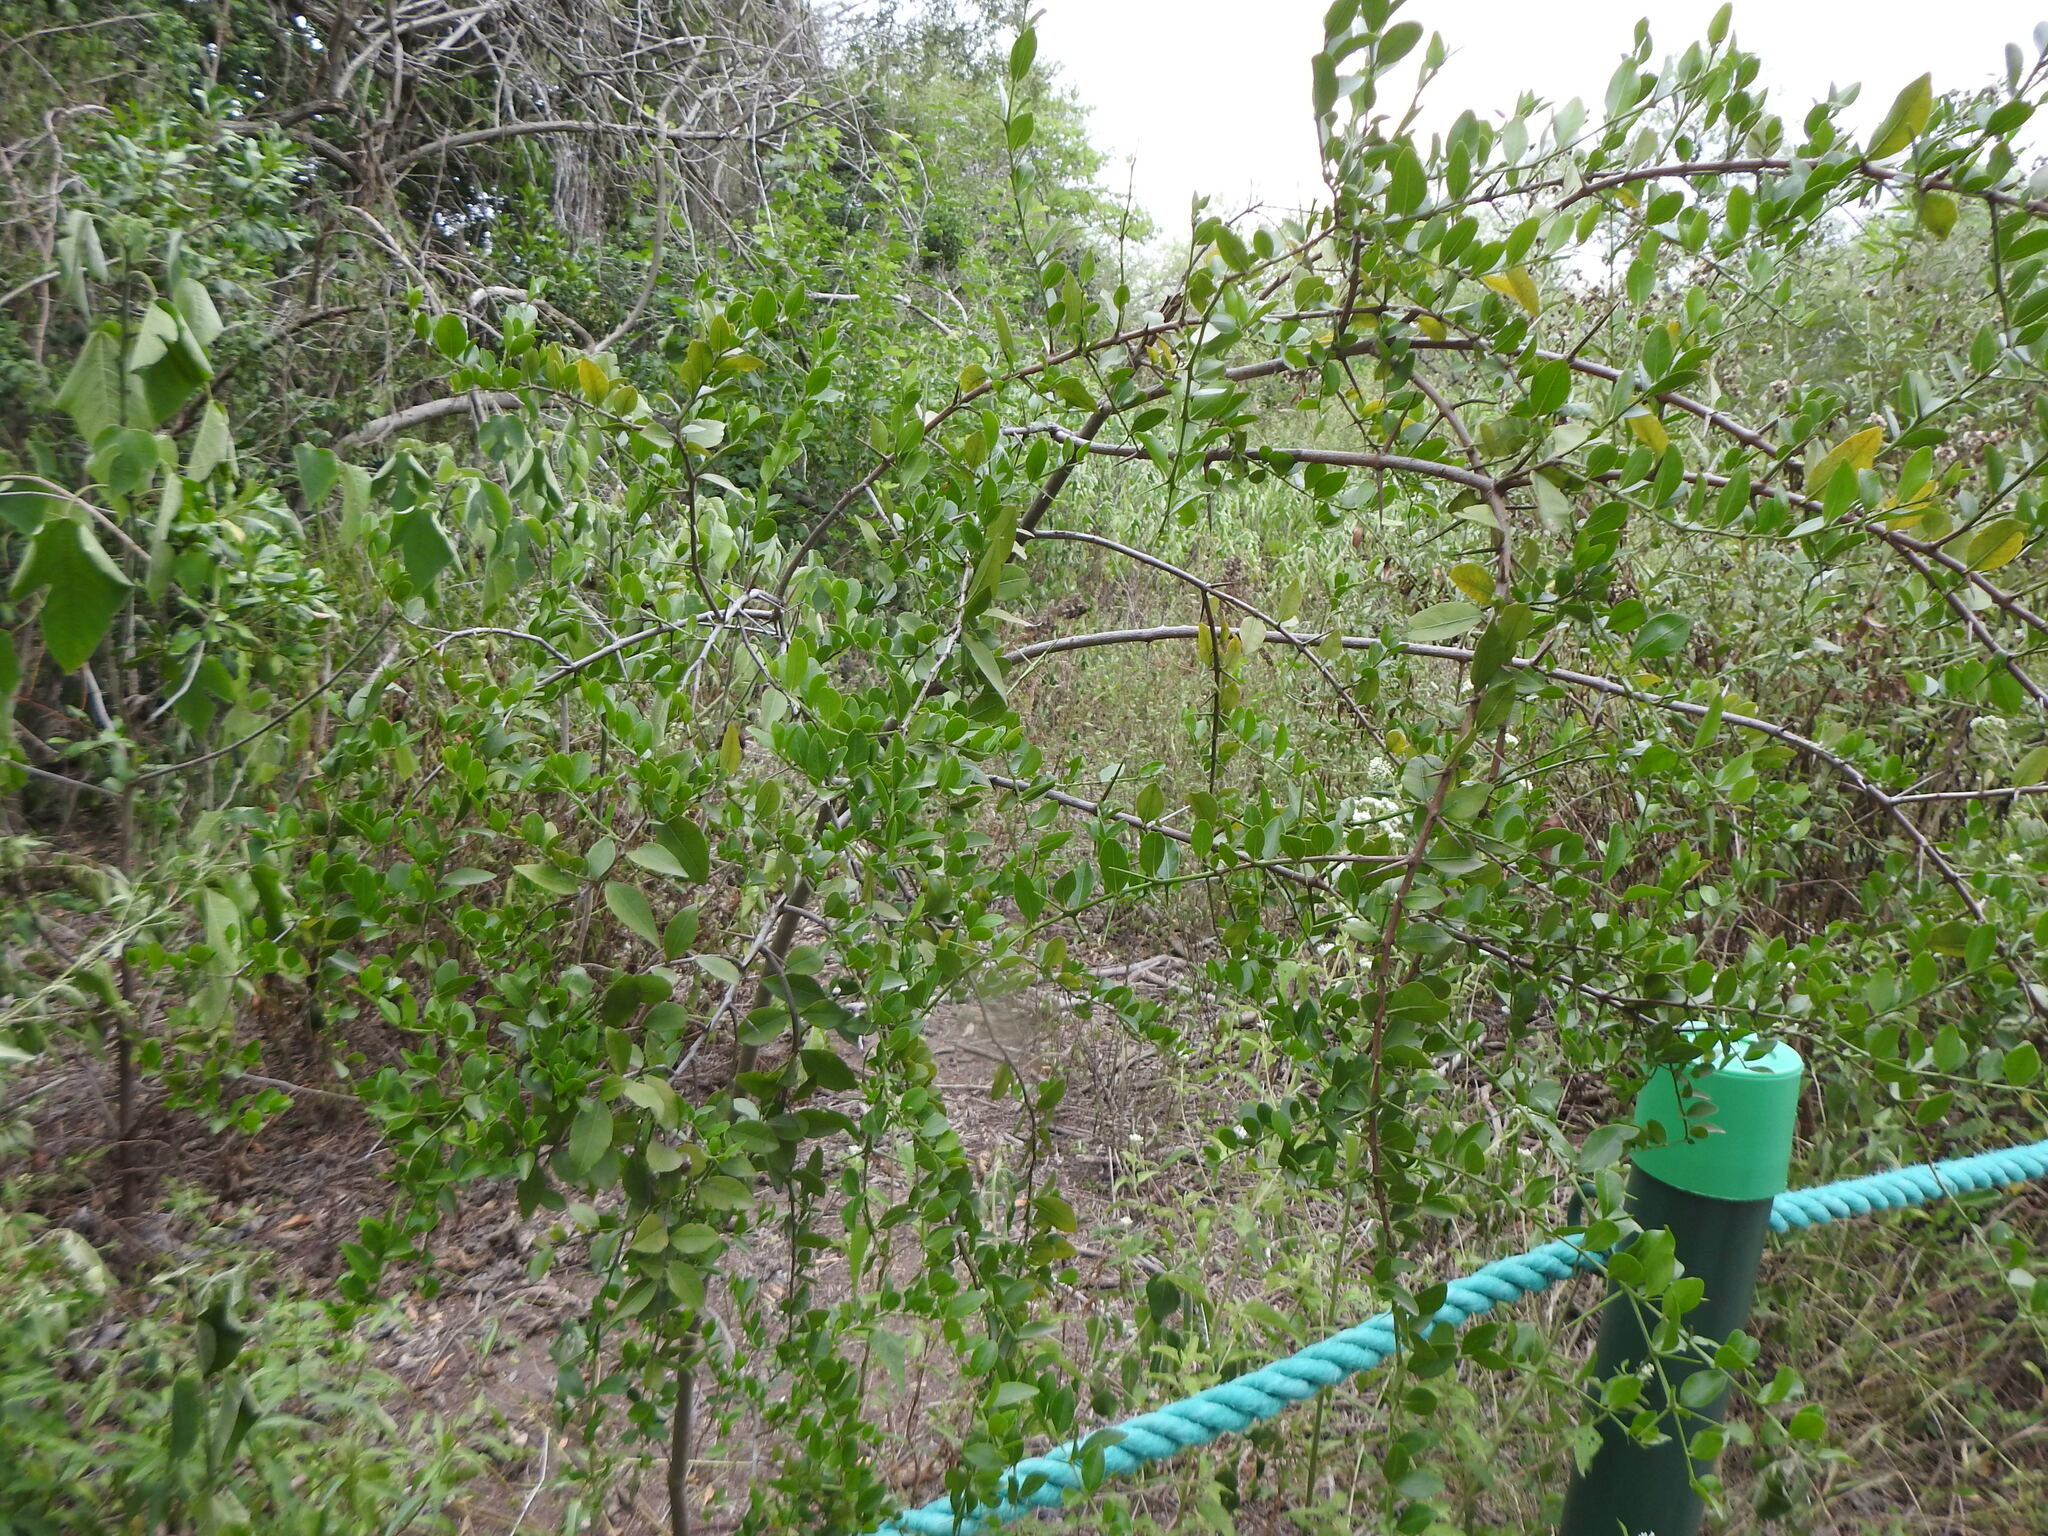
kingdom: Plantae
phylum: Tracheophyta
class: Magnoliopsida
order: Rosales
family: Rhamnaceae
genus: Scutia
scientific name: Scutia buxifolia
